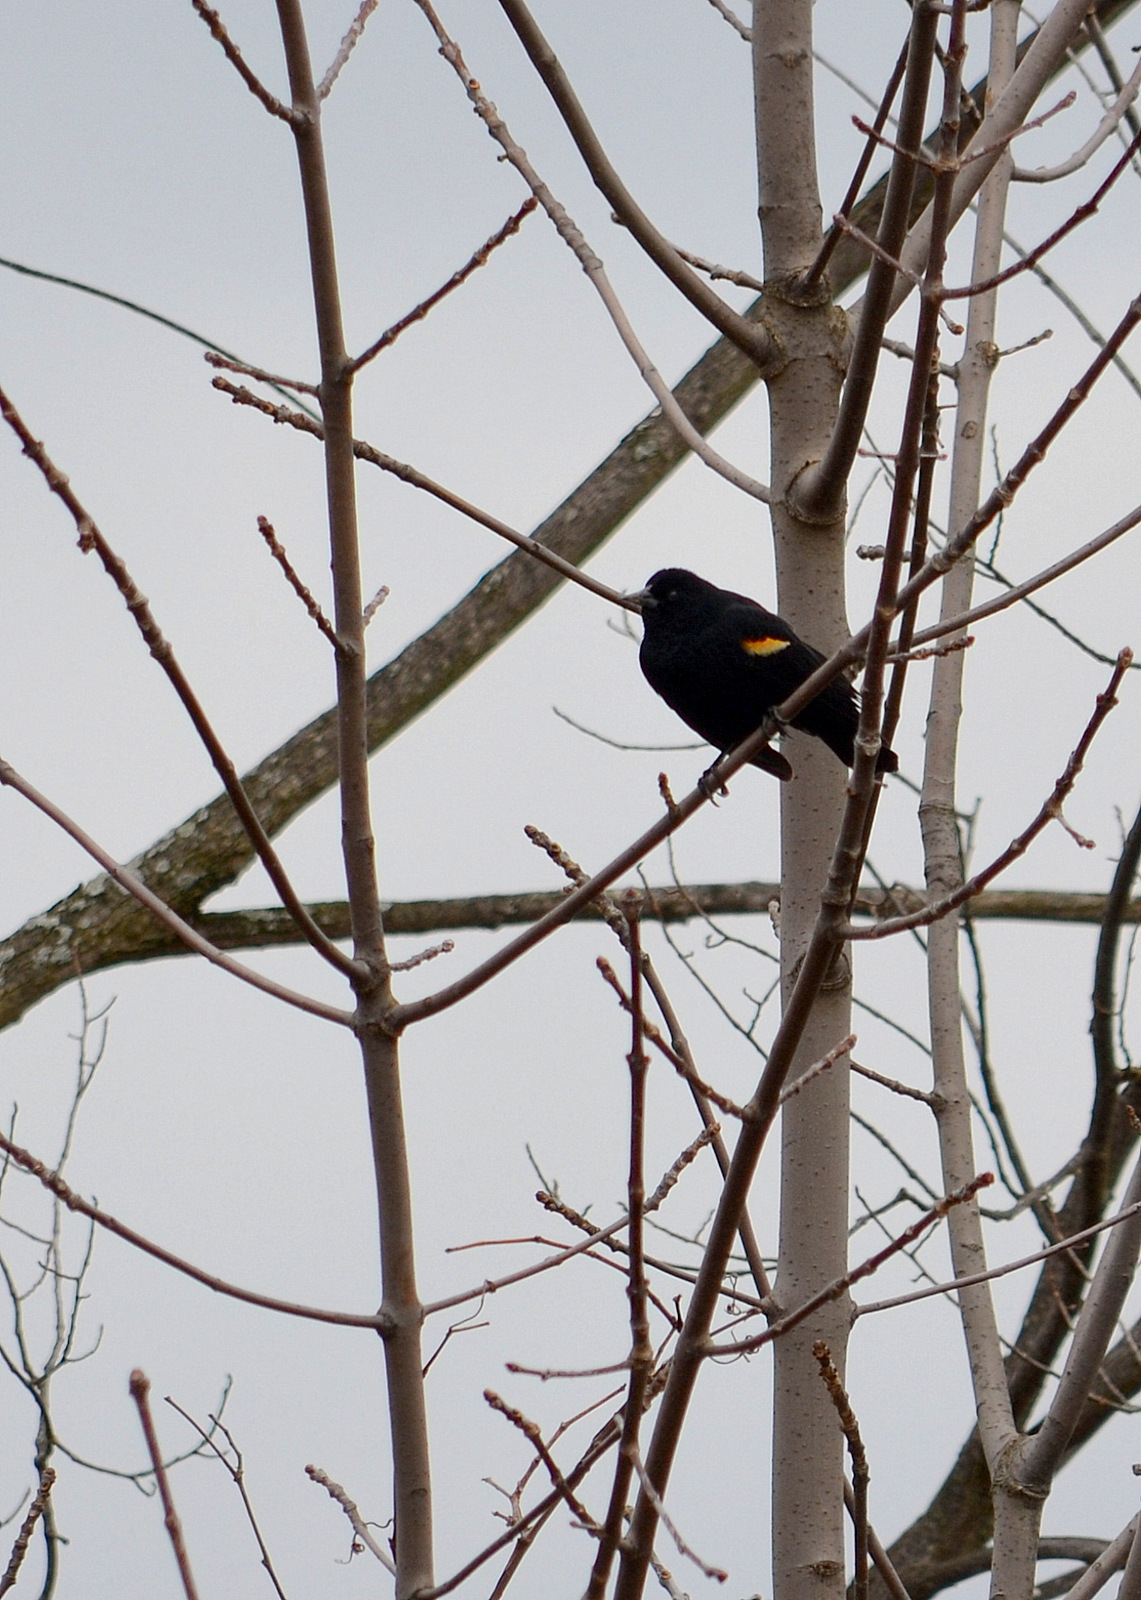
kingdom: Animalia
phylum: Chordata
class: Aves
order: Passeriformes
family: Icteridae
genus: Agelaius
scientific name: Agelaius phoeniceus
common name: Red-winged blackbird
